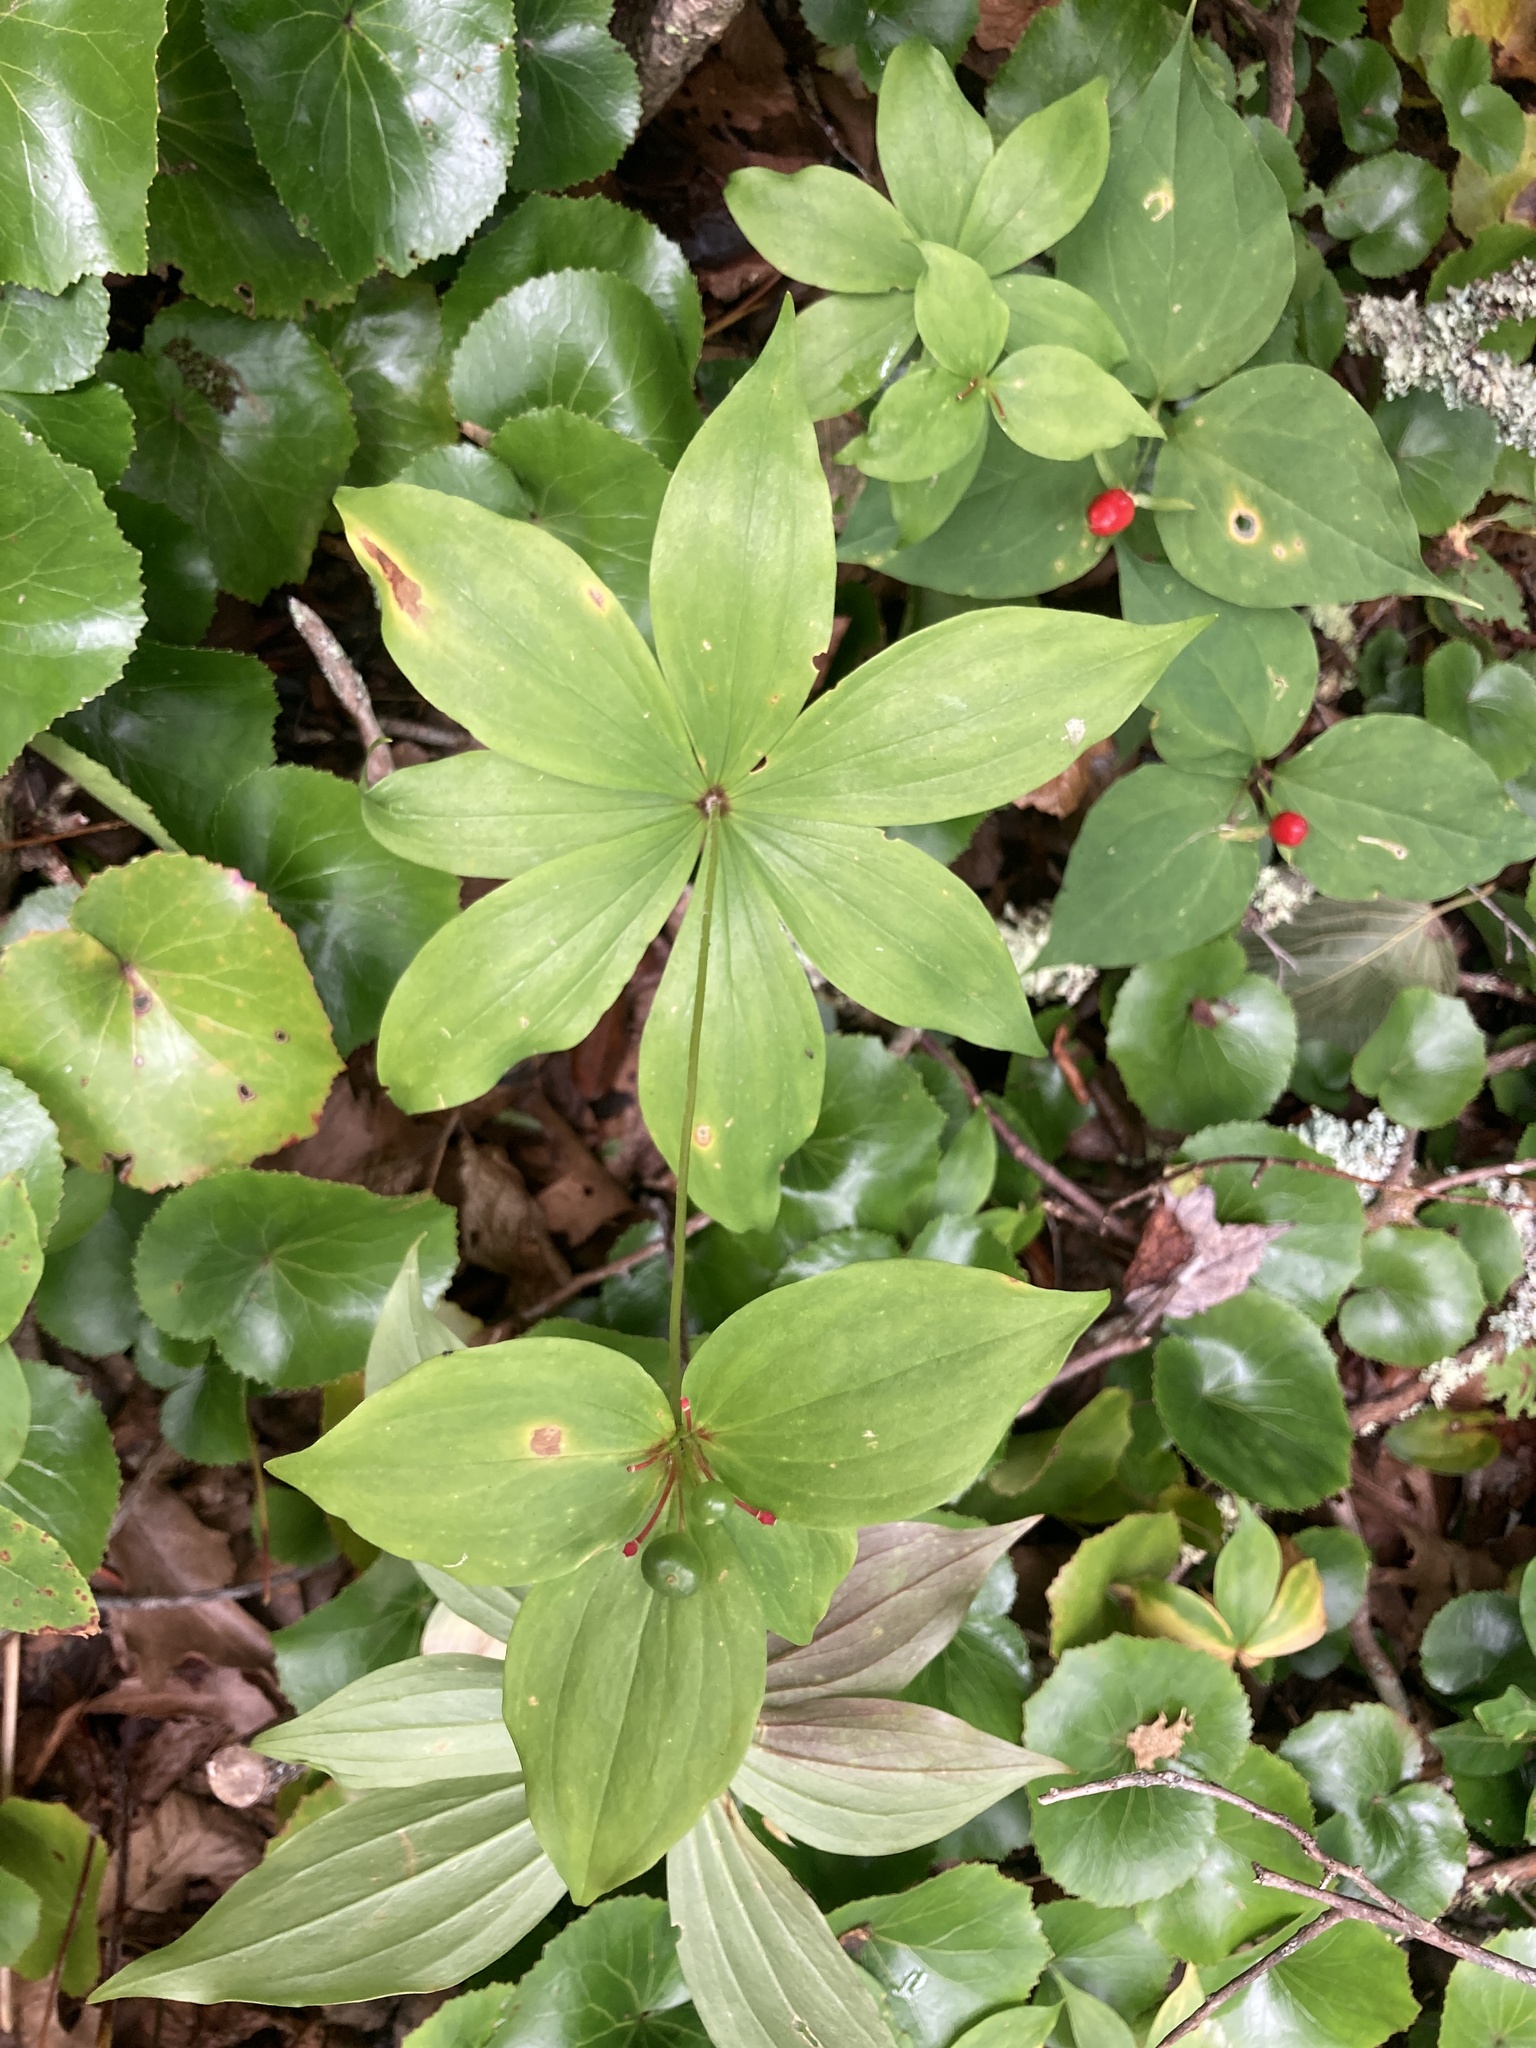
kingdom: Plantae
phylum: Tracheophyta
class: Liliopsida
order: Liliales
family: Liliaceae
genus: Medeola
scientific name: Medeola virginiana
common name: Indian cucumber-root
